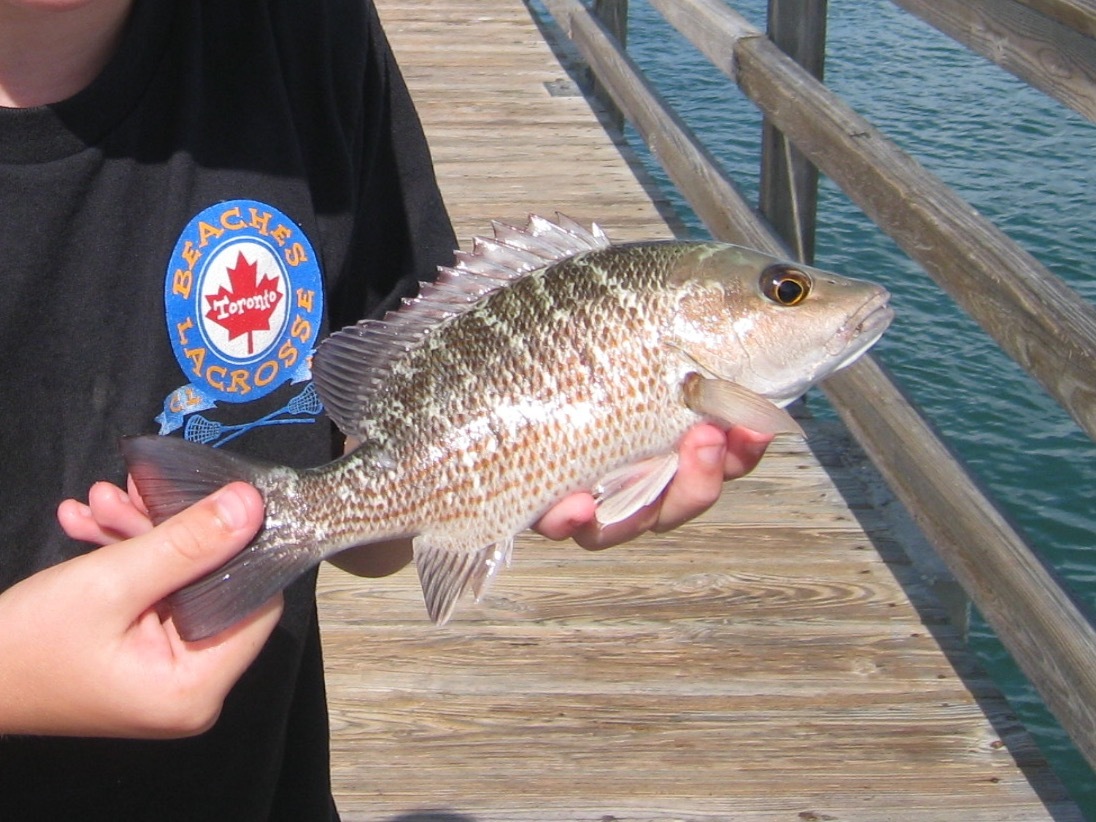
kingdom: Animalia
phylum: Chordata
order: Perciformes
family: Lutjanidae
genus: Lutjanus
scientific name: Lutjanus griseus
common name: Gray snapper
